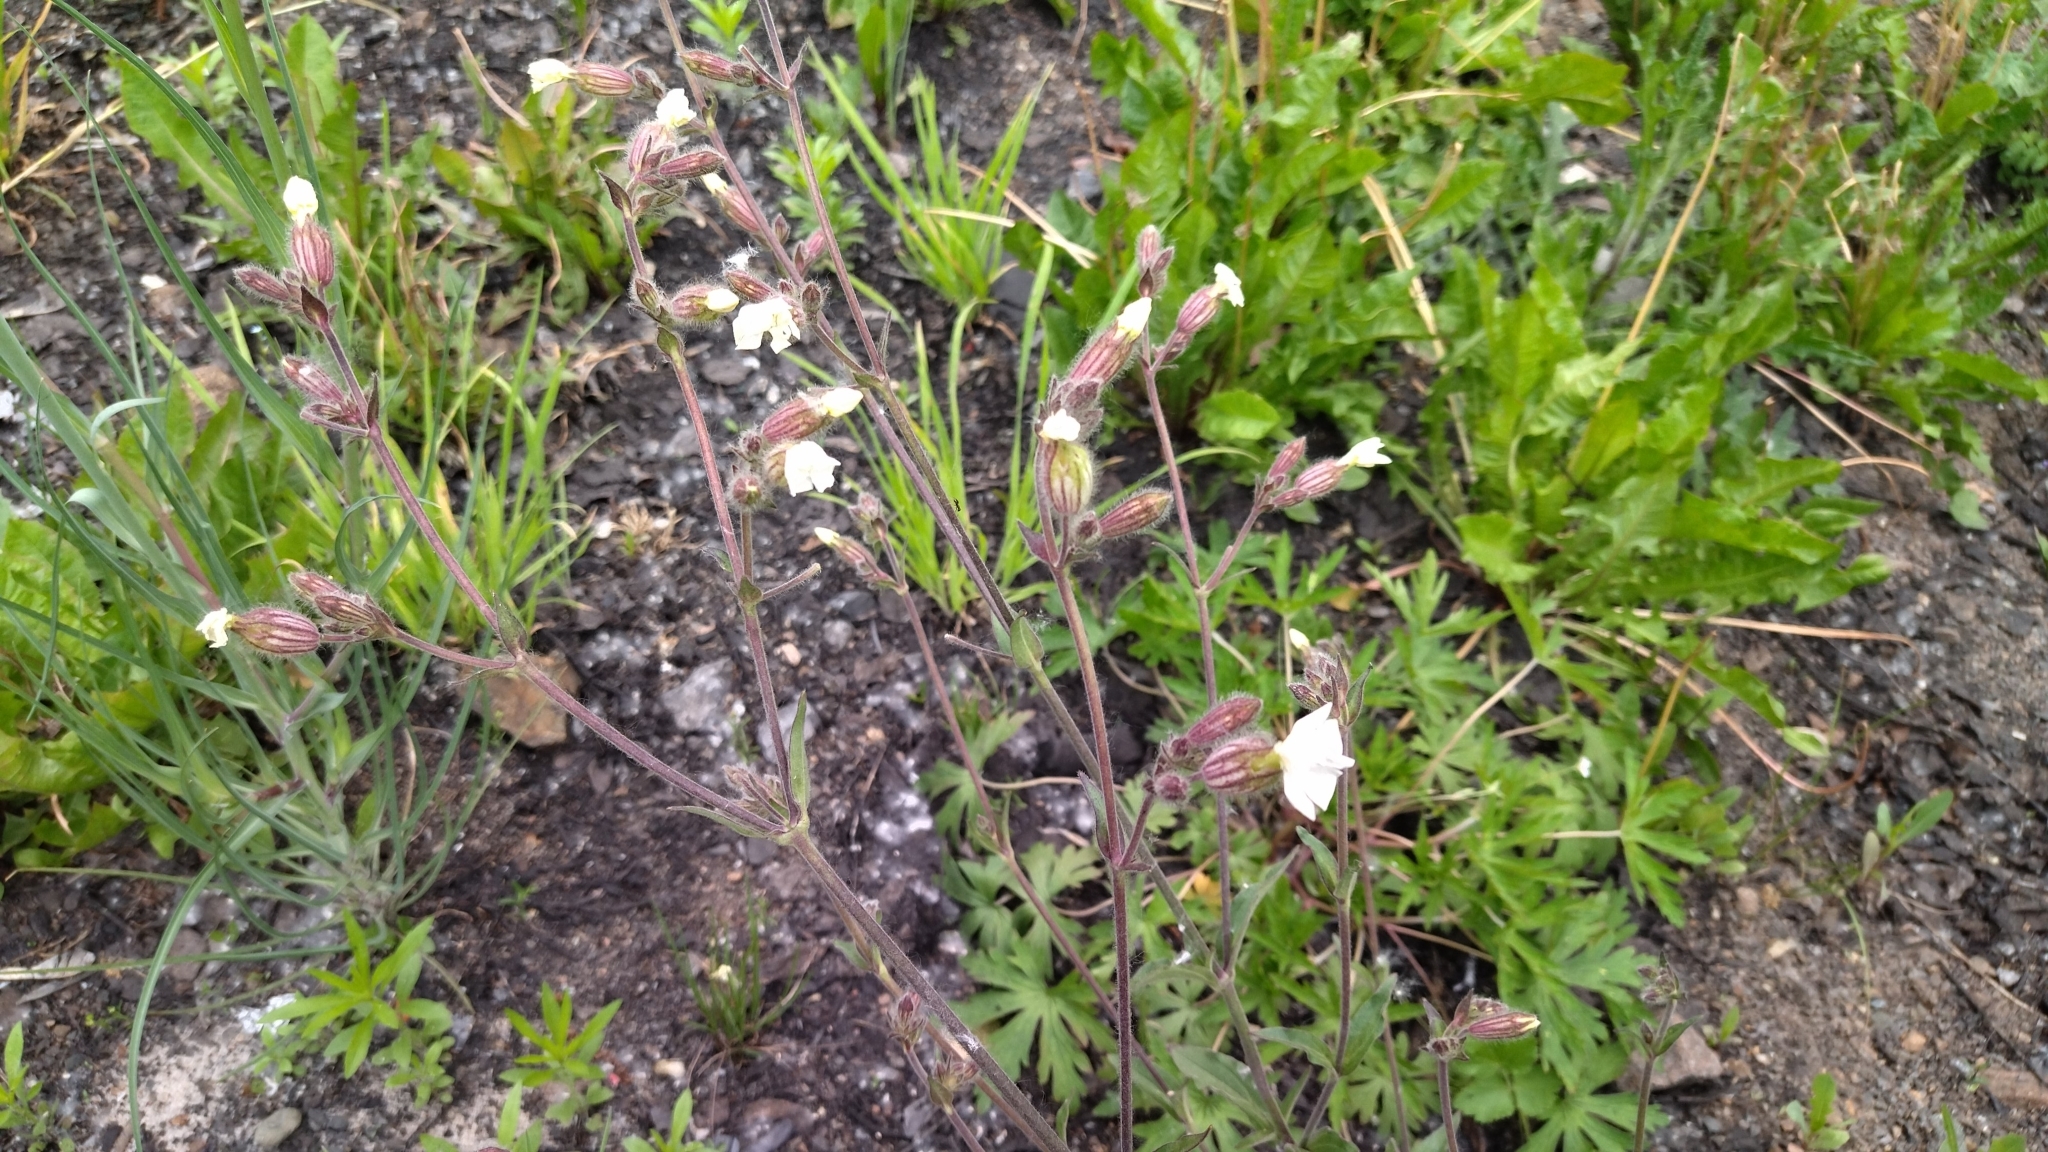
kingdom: Plantae
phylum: Tracheophyta
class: Magnoliopsida
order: Caryophyllales
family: Caryophyllaceae
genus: Silene
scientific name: Silene latifolia
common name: White campion
